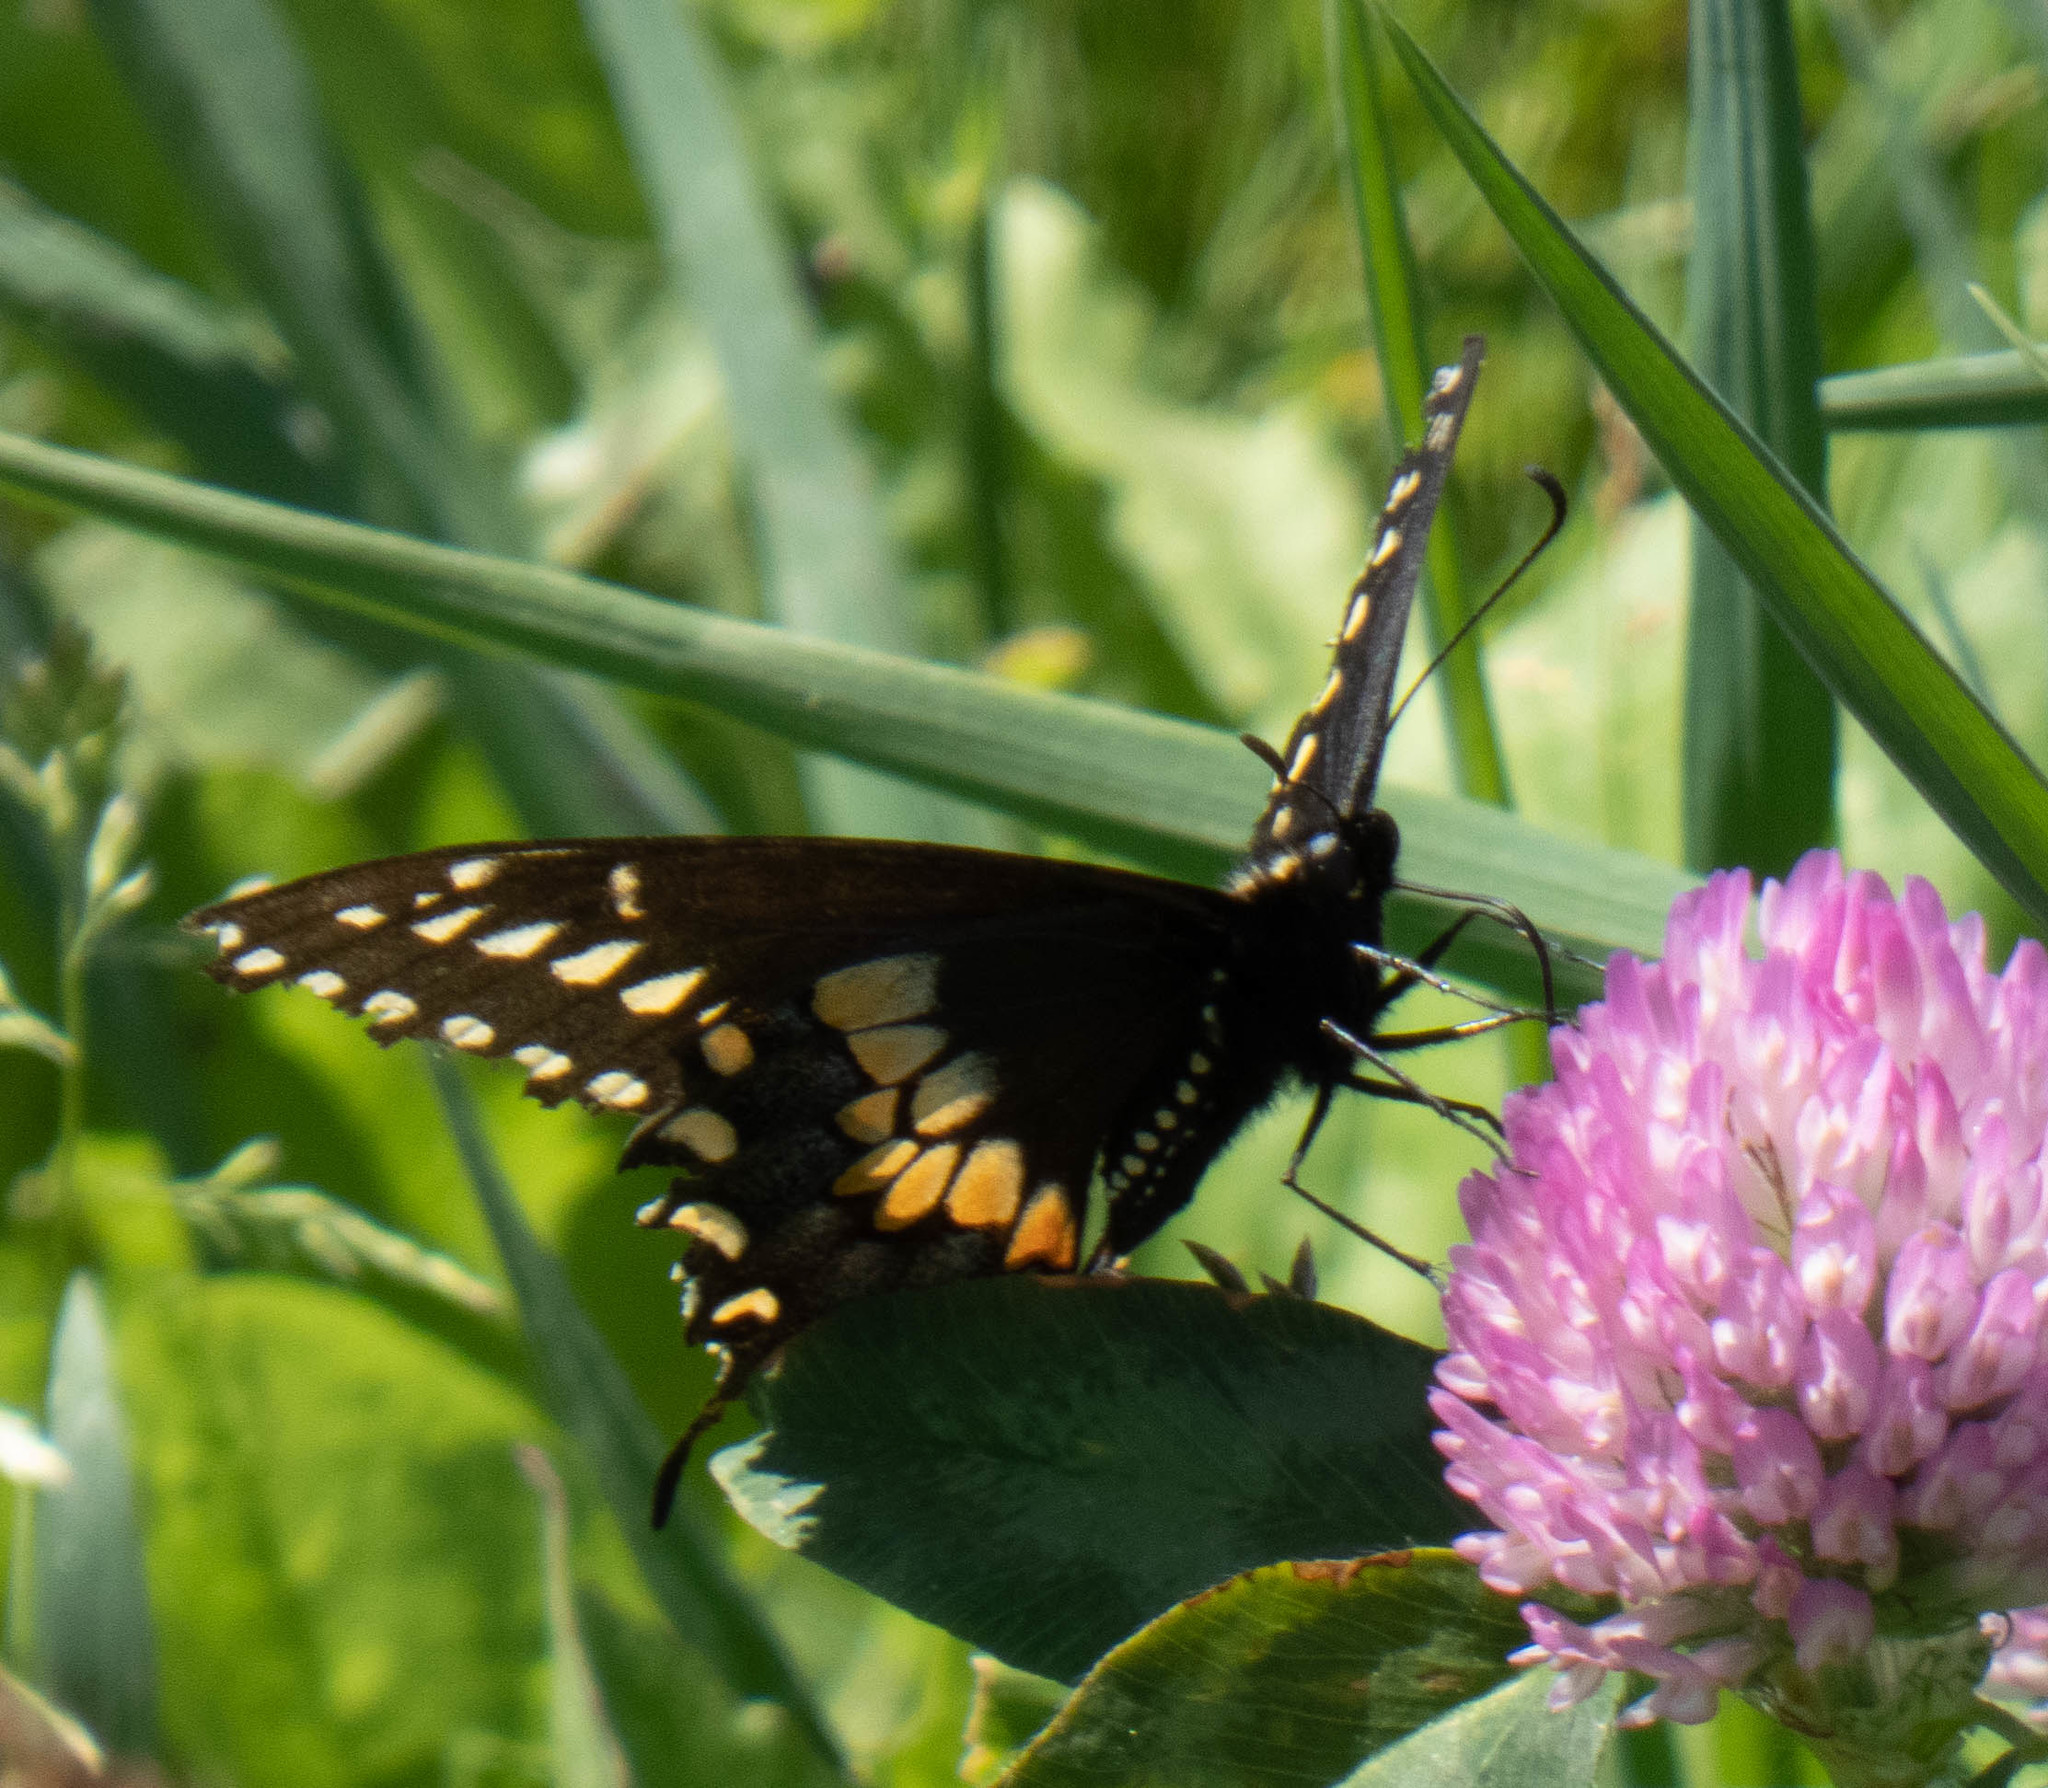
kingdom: Animalia
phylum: Arthropoda
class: Insecta
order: Lepidoptera
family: Papilionidae
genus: Papilio
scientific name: Papilio polyxenes
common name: Black swallowtail
